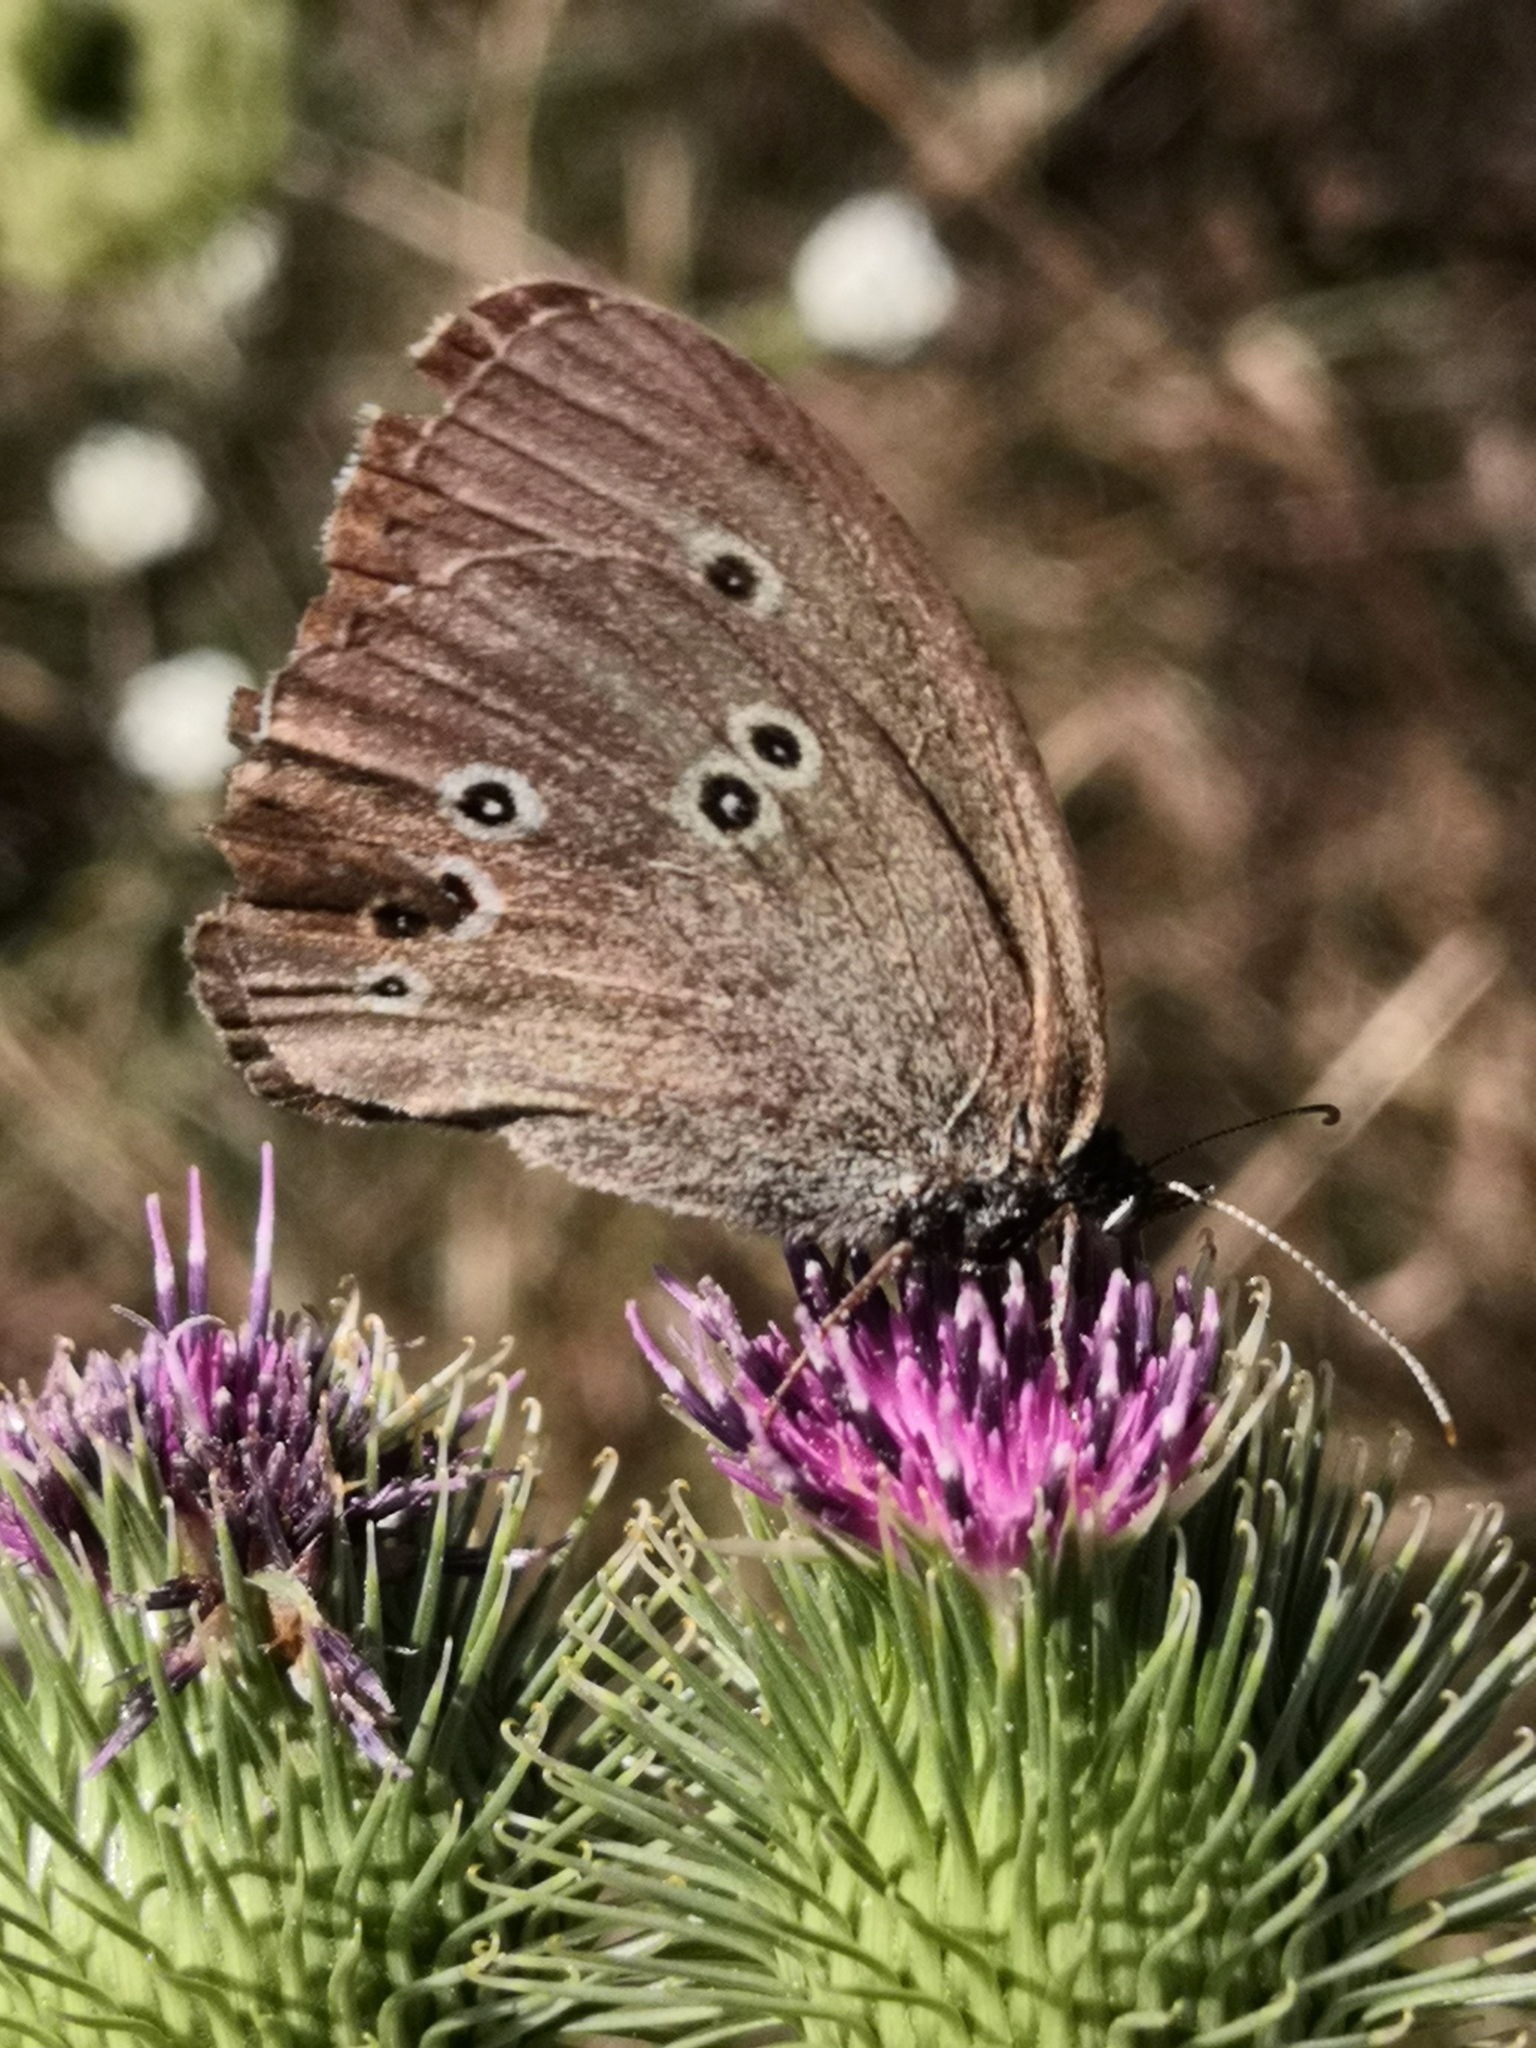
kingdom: Animalia
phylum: Arthropoda
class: Insecta
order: Lepidoptera
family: Nymphalidae
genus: Aphantopus
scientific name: Aphantopus hyperantus
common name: Ringlet
